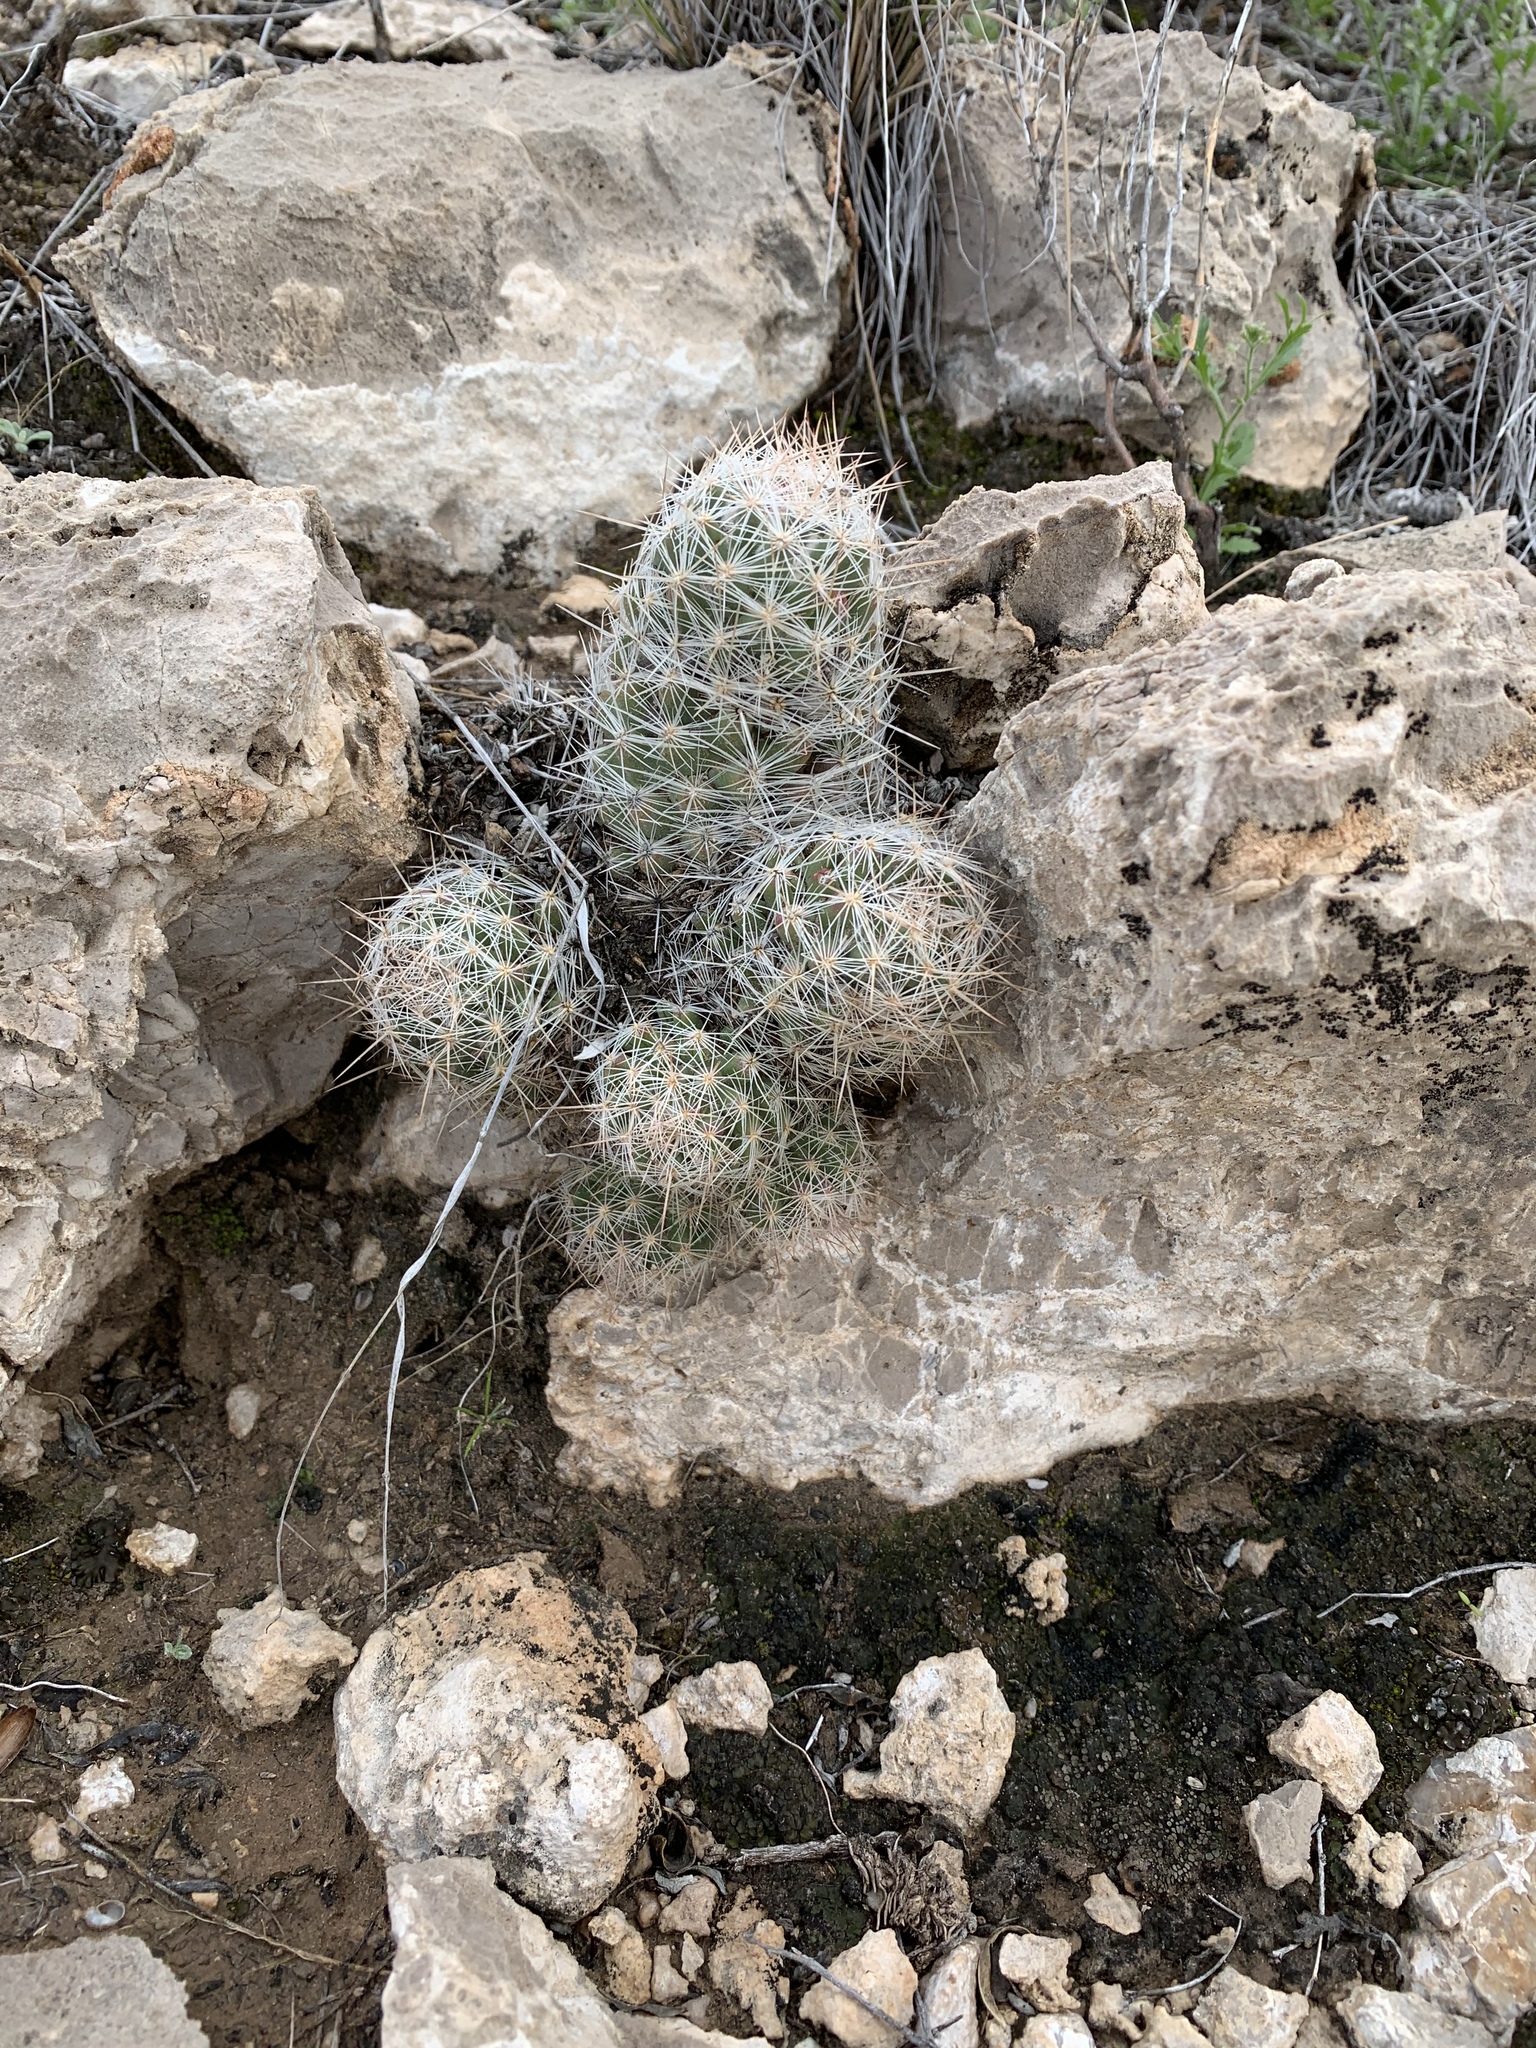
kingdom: Plantae
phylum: Tracheophyta
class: Magnoliopsida
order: Caryophyllales
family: Cactaceae
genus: Pelecyphora
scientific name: Pelecyphora tuberculosa
